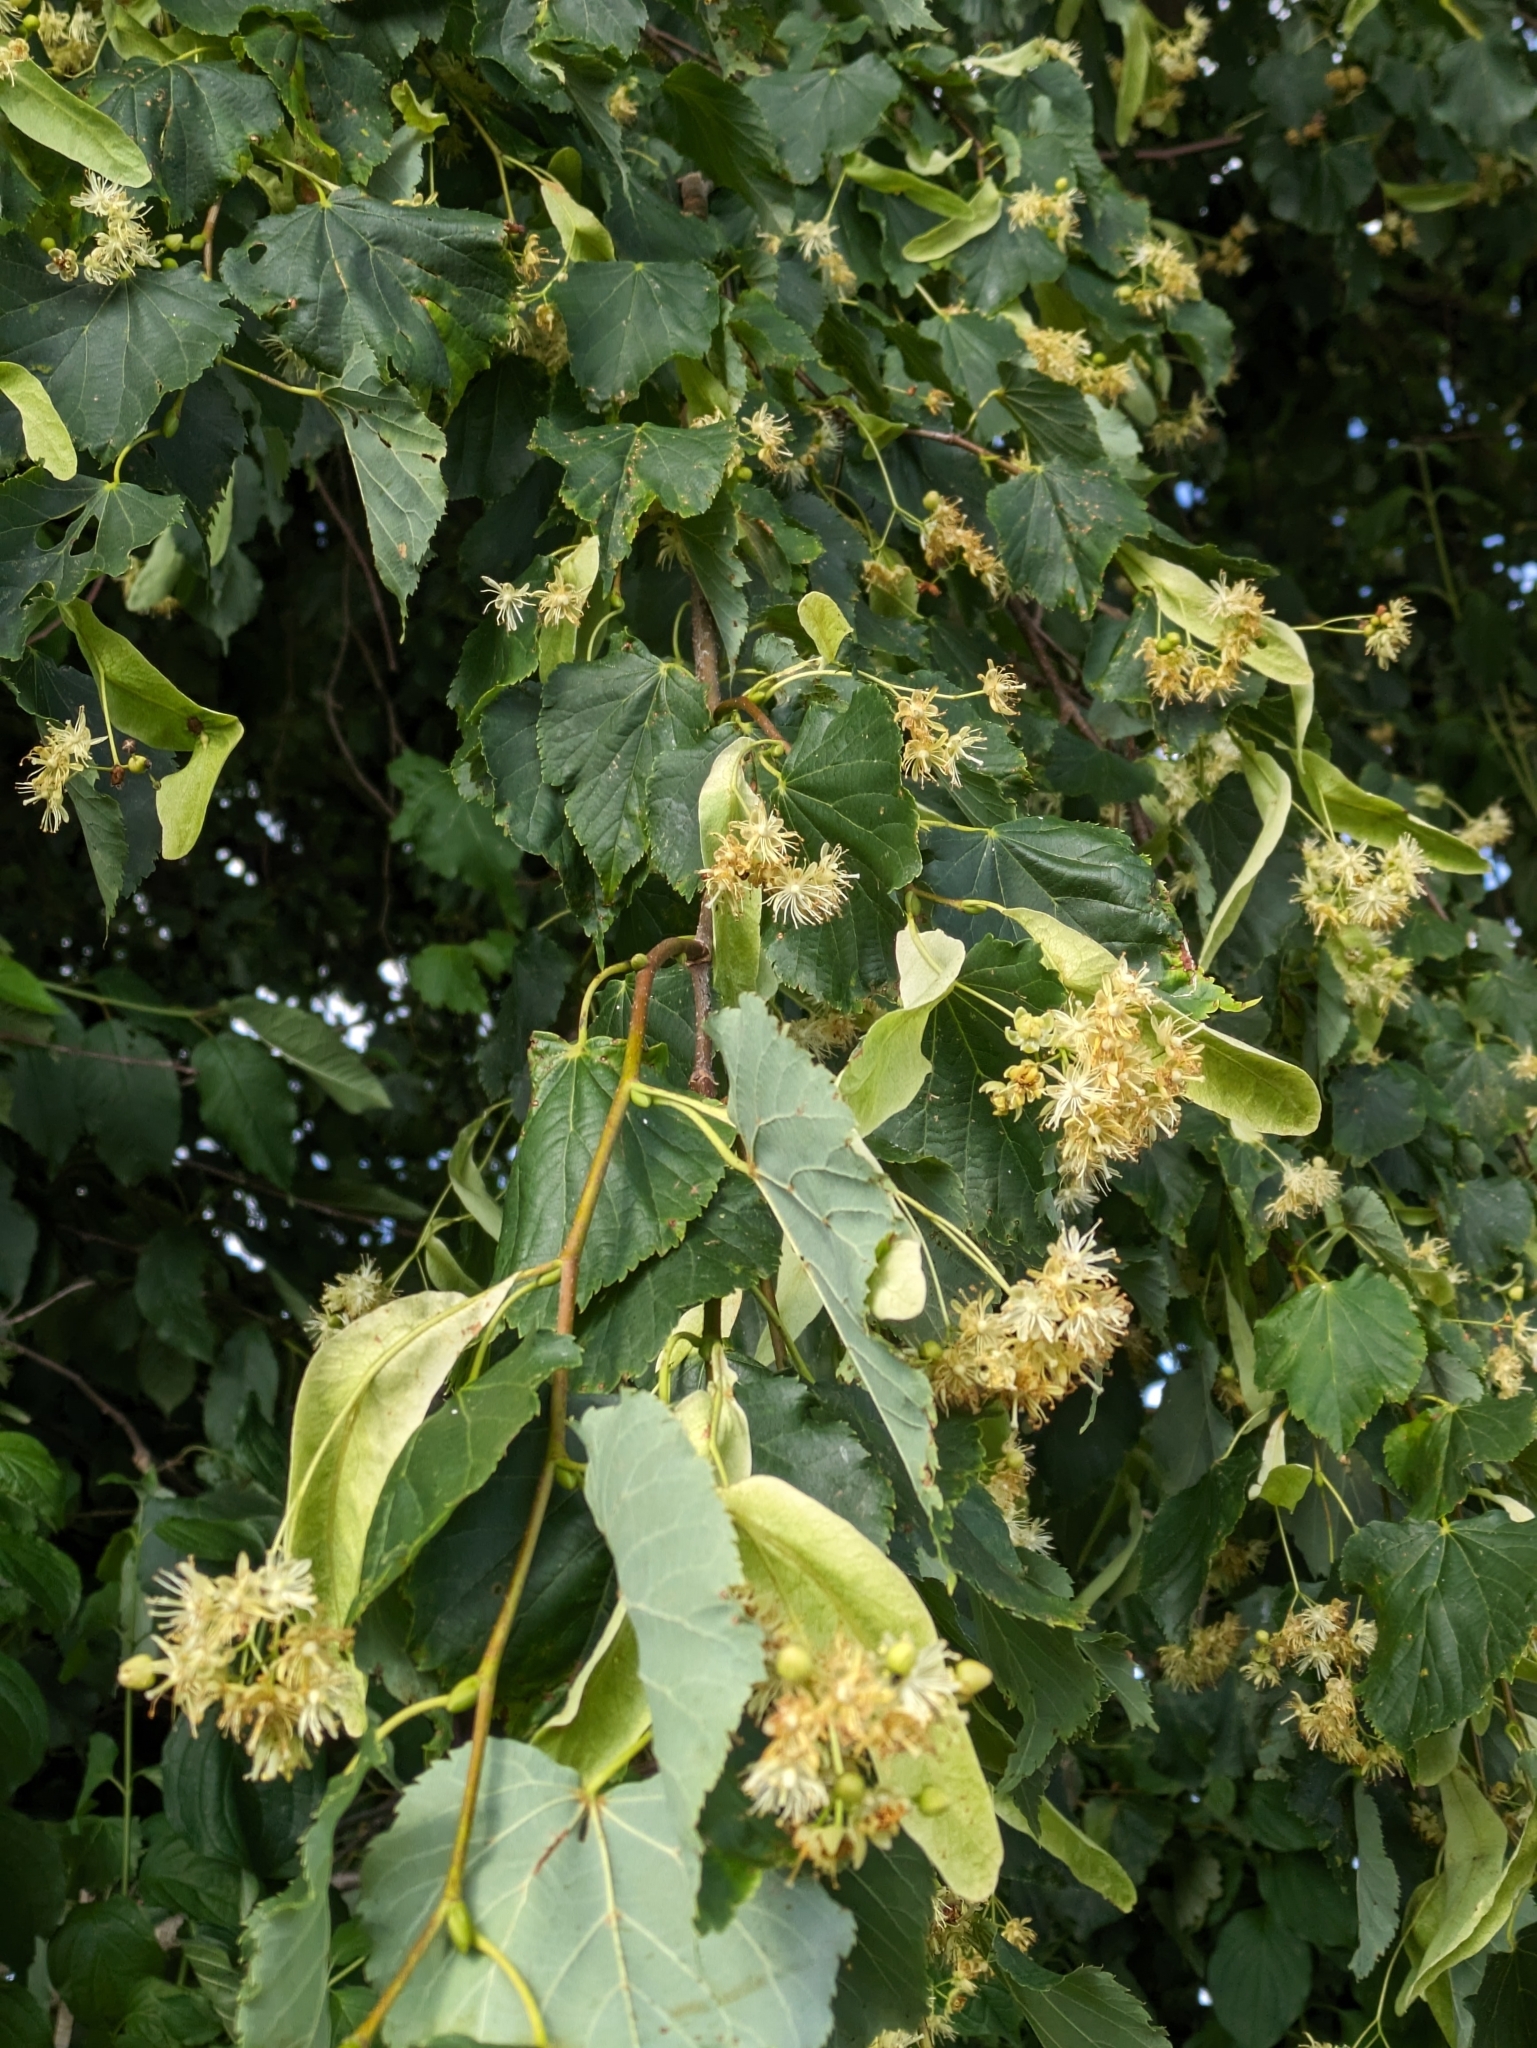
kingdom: Plantae
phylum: Tracheophyta
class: Magnoliopsida
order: Malvales
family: Malvaceae
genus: Tilia
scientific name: Tilia cordata
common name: Small-leaved lime
